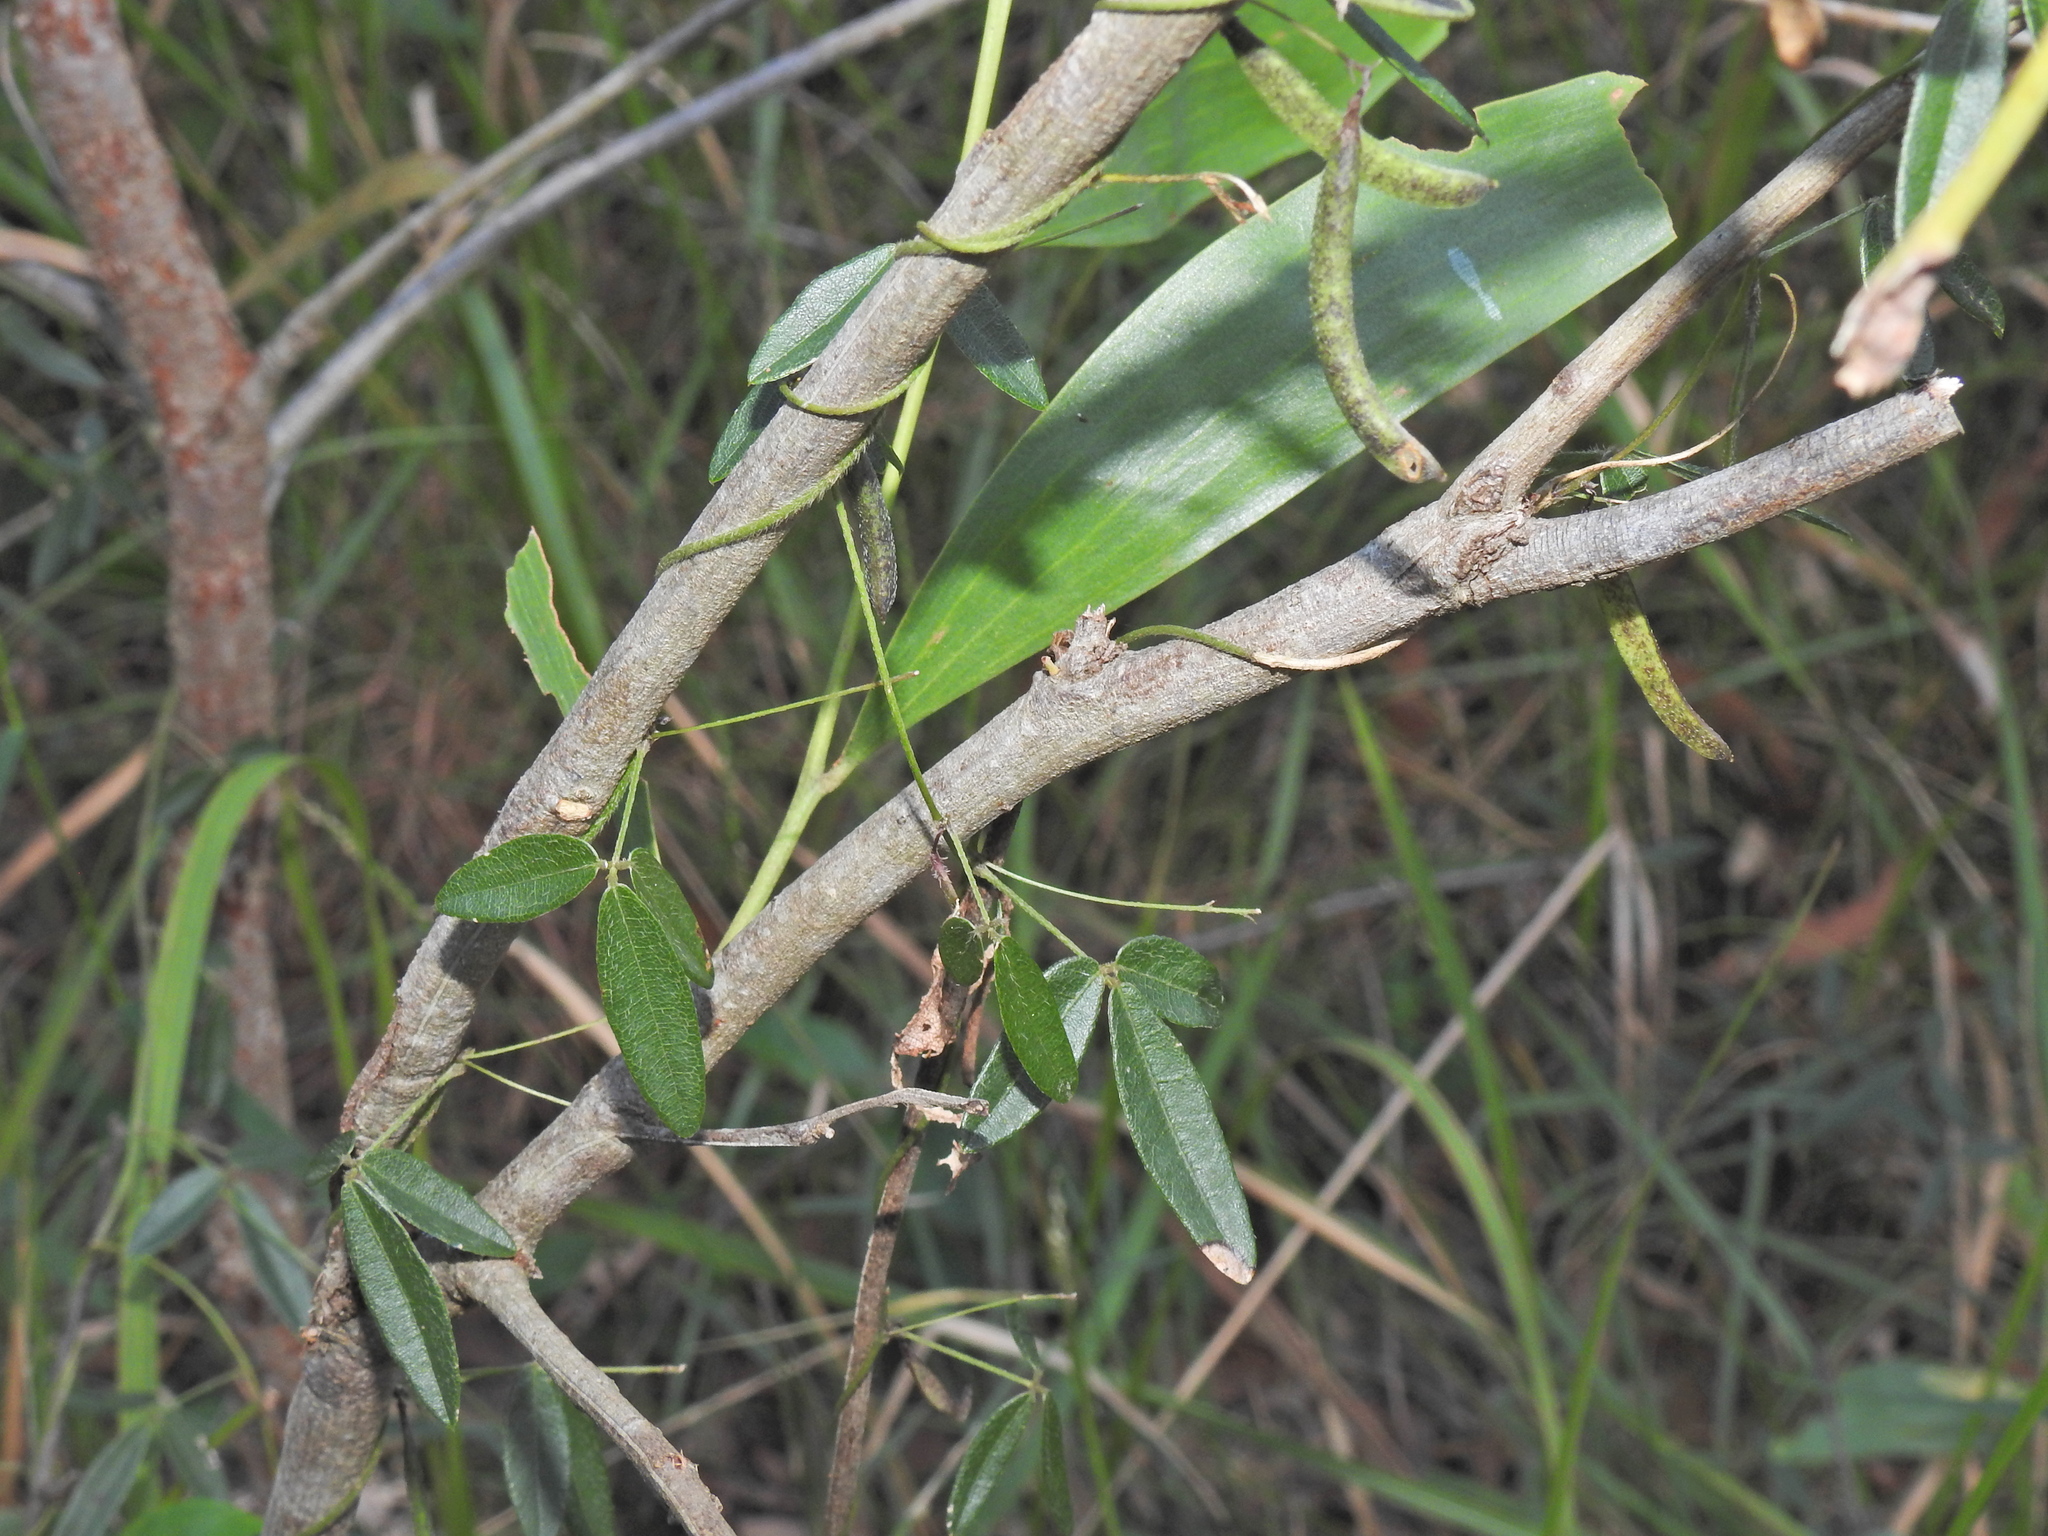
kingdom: Plantae
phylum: Tracheophyta
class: Magnoliopsida
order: Fabales
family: Fabaceae
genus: Glycine
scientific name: Glycine cyrtoloba
